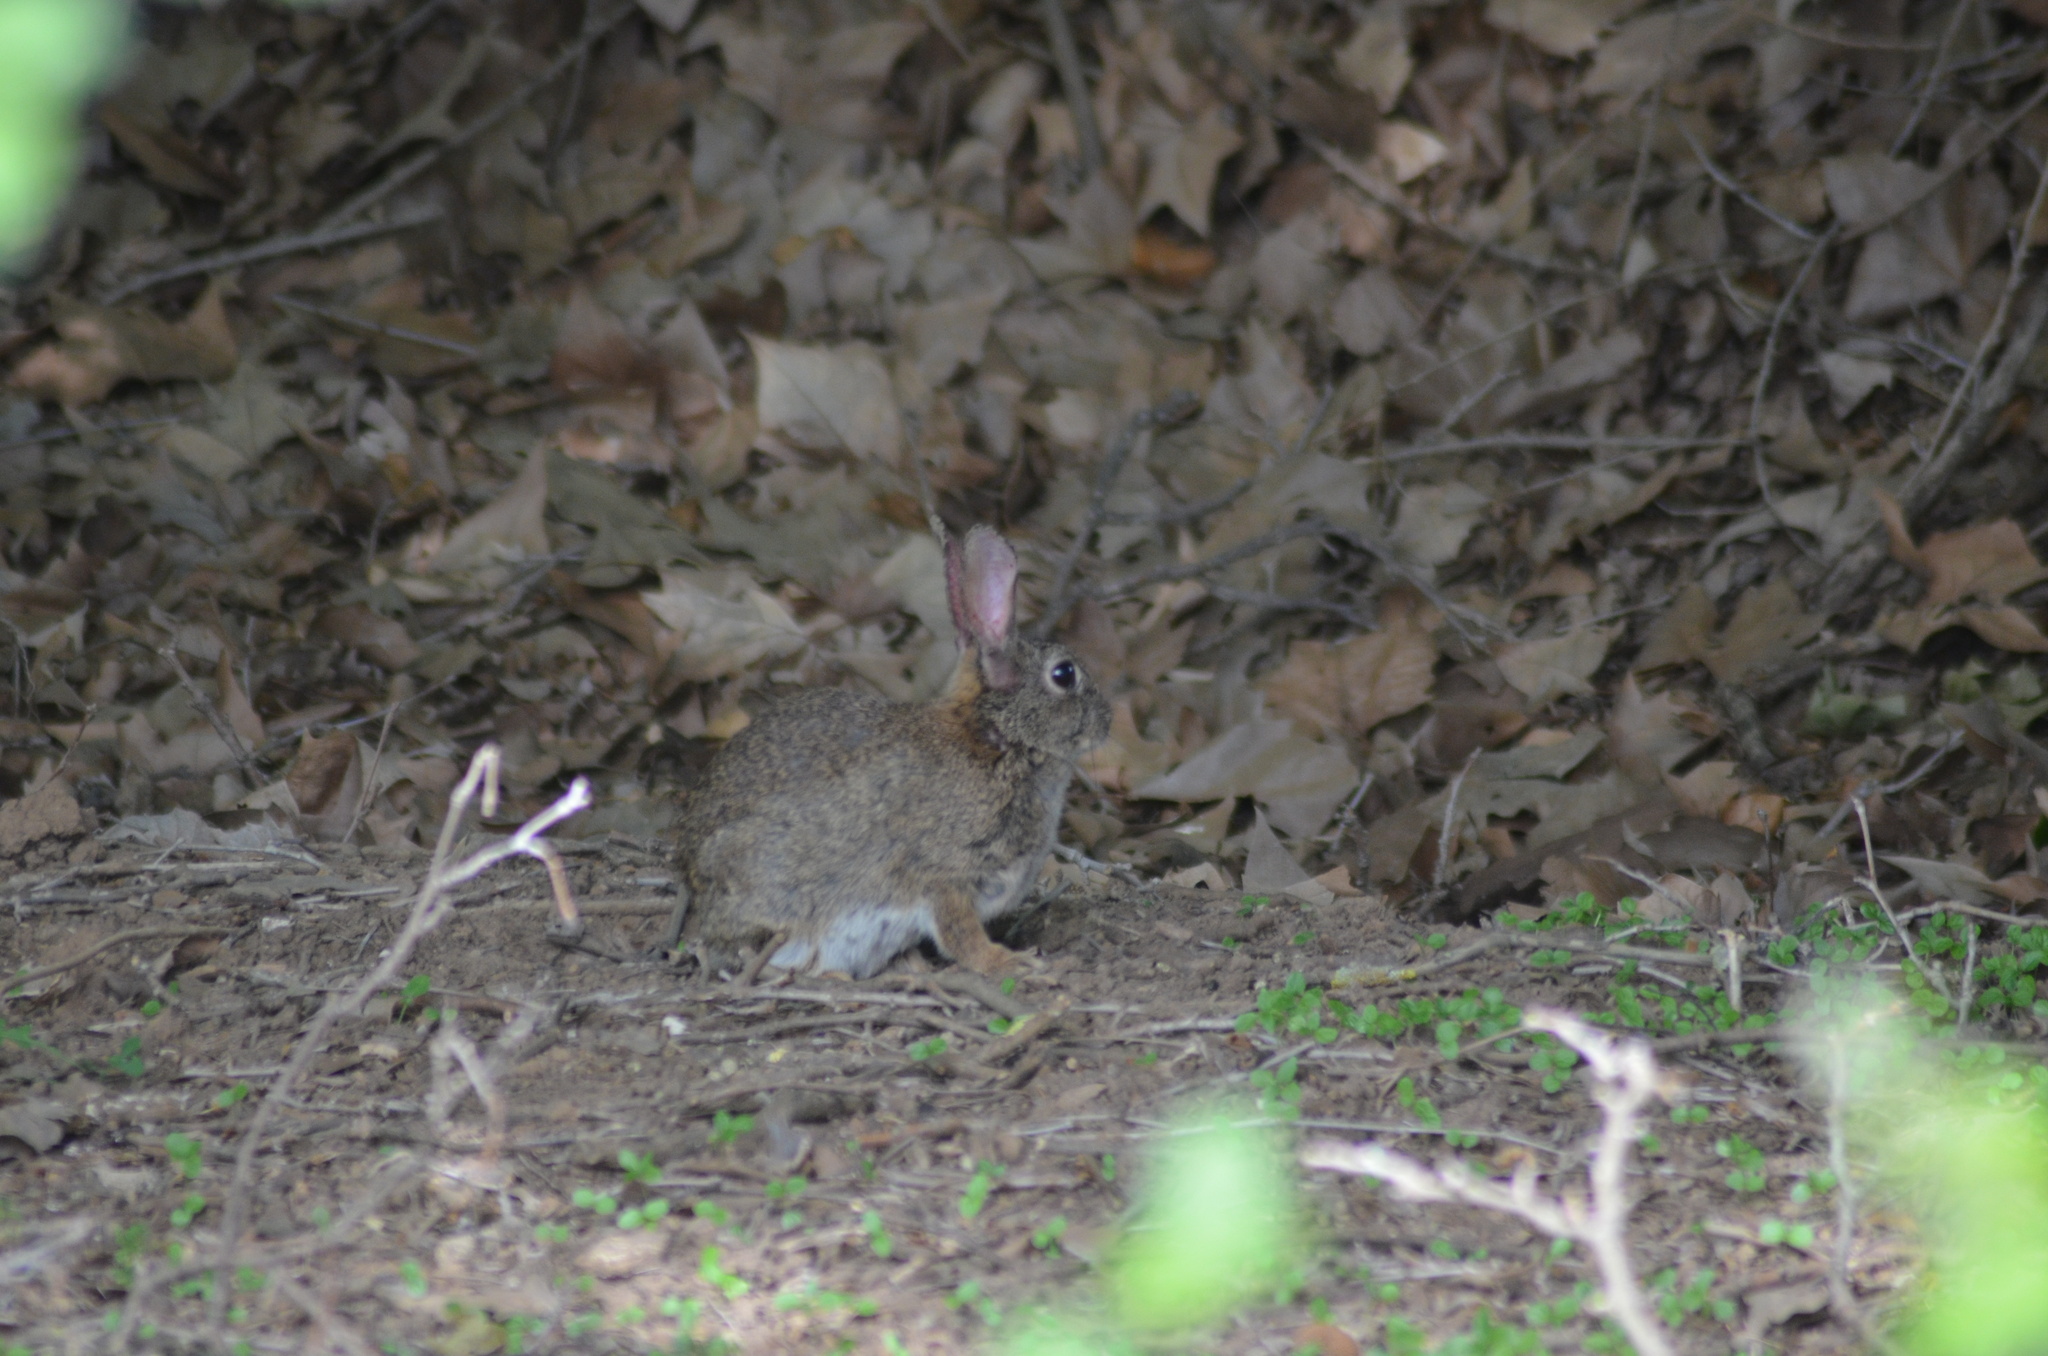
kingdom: Animalia
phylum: Chordata
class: Mammalia
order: Lagomorpha
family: Leporidae
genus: Oryctolagus
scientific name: Oryctolagus cuniculus
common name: European rabbit
